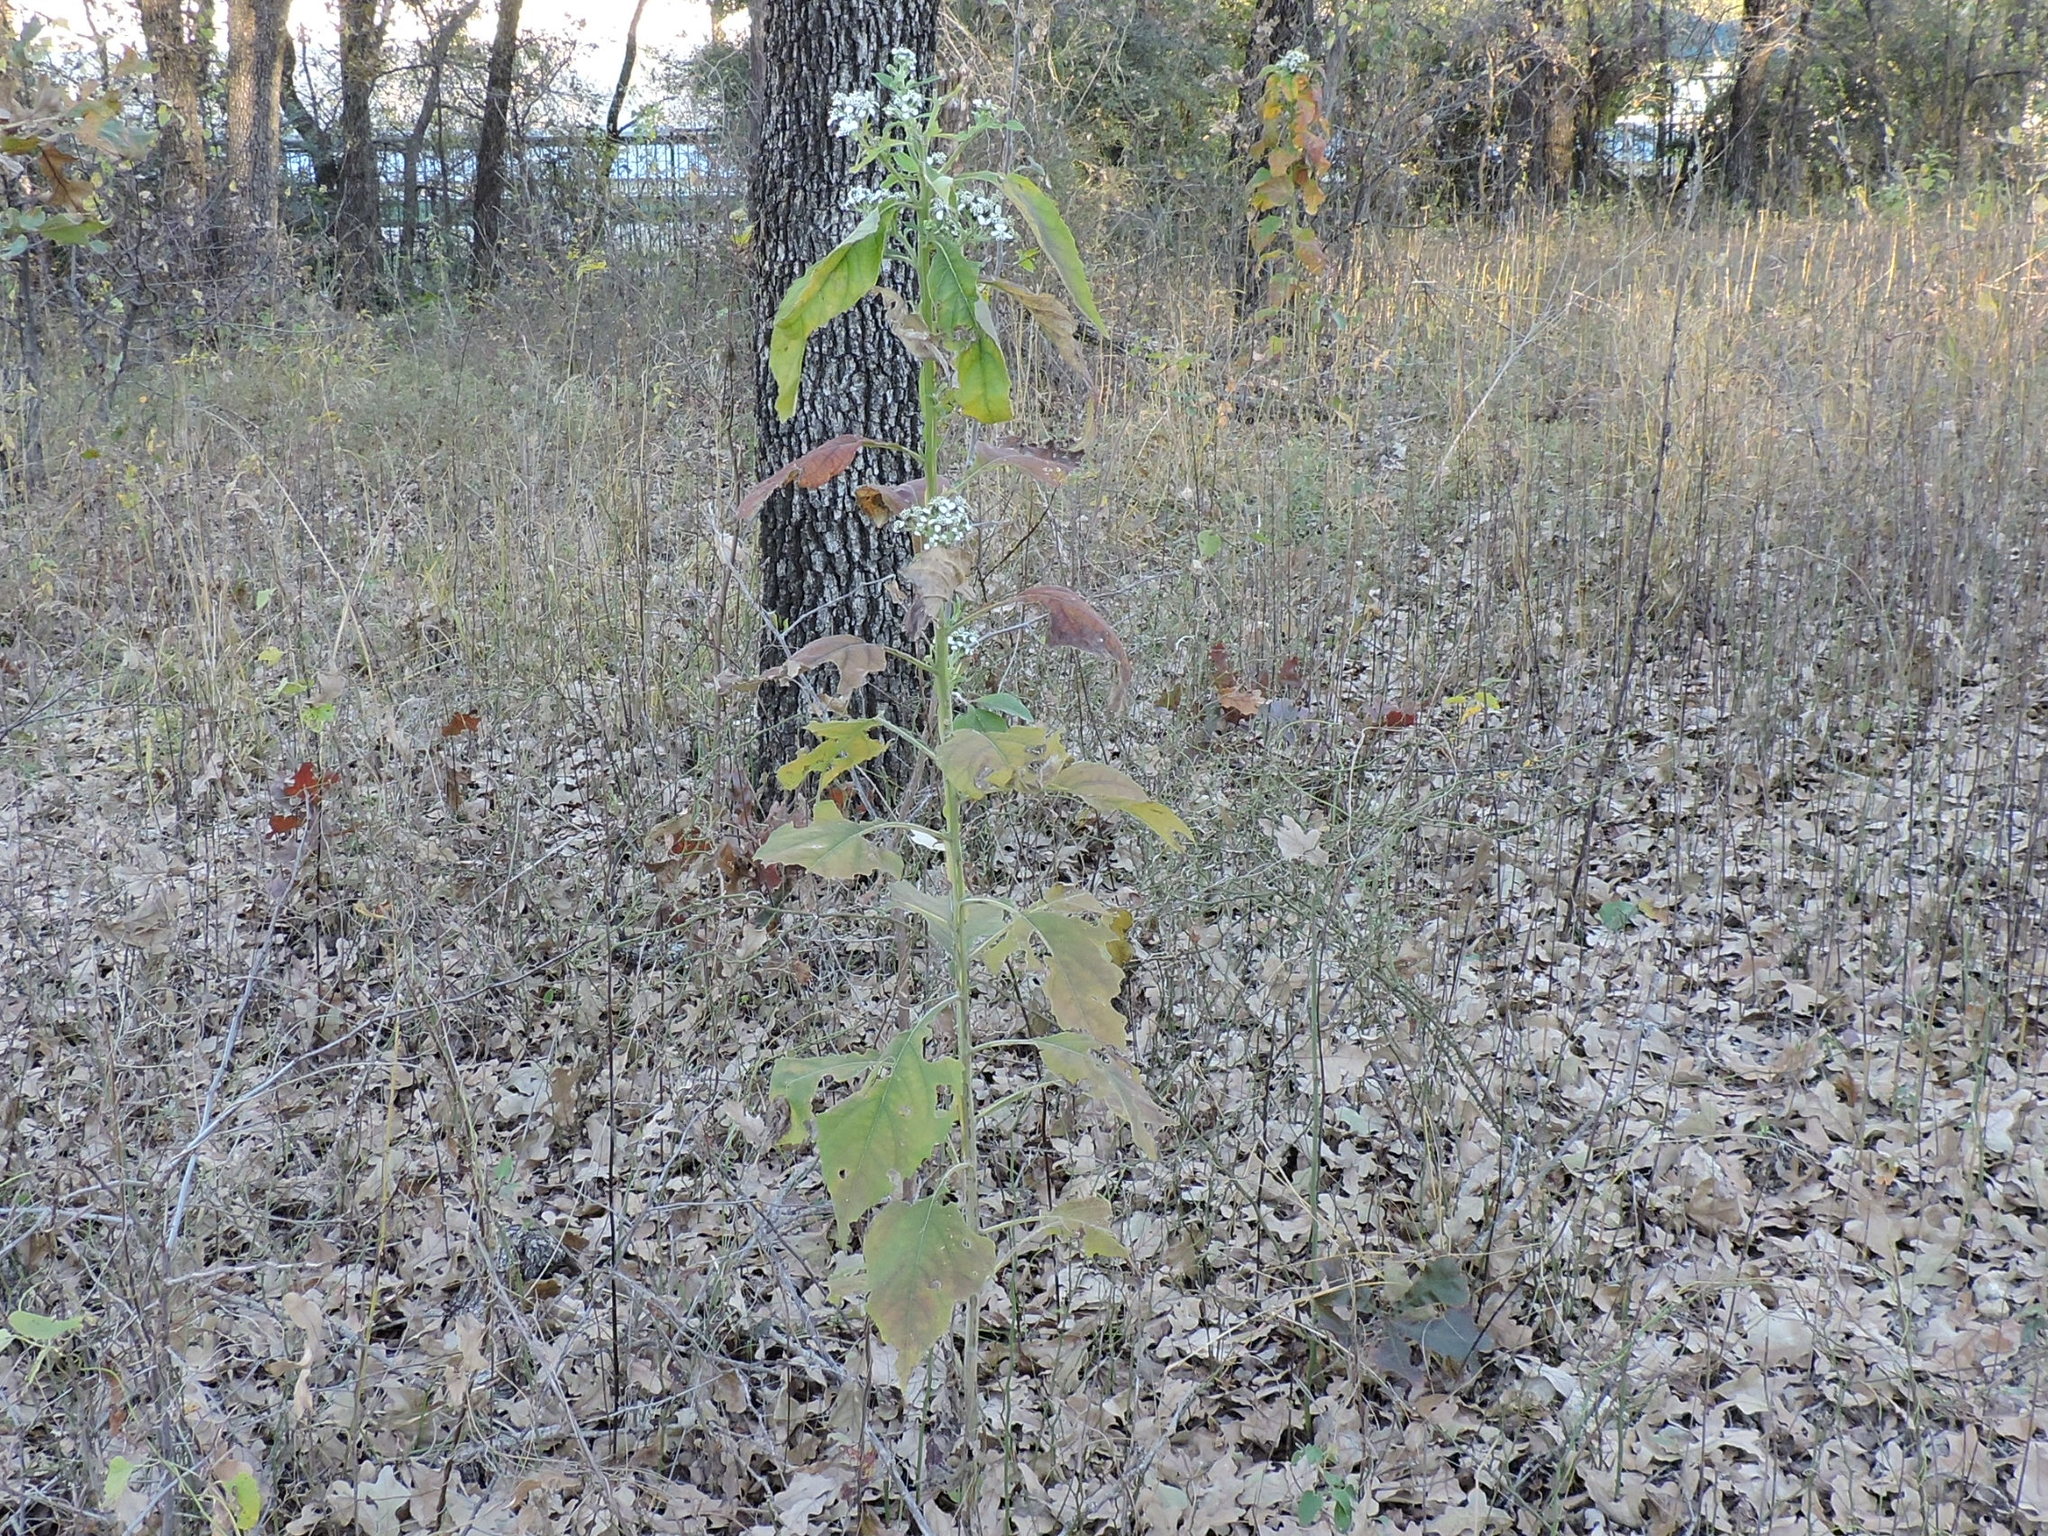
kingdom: Plantae
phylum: Tracheophyta
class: Magnoliopsida
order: Asterales
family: Asteraceae
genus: Verbesina
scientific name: Verbesina virginica
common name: Frostweed
